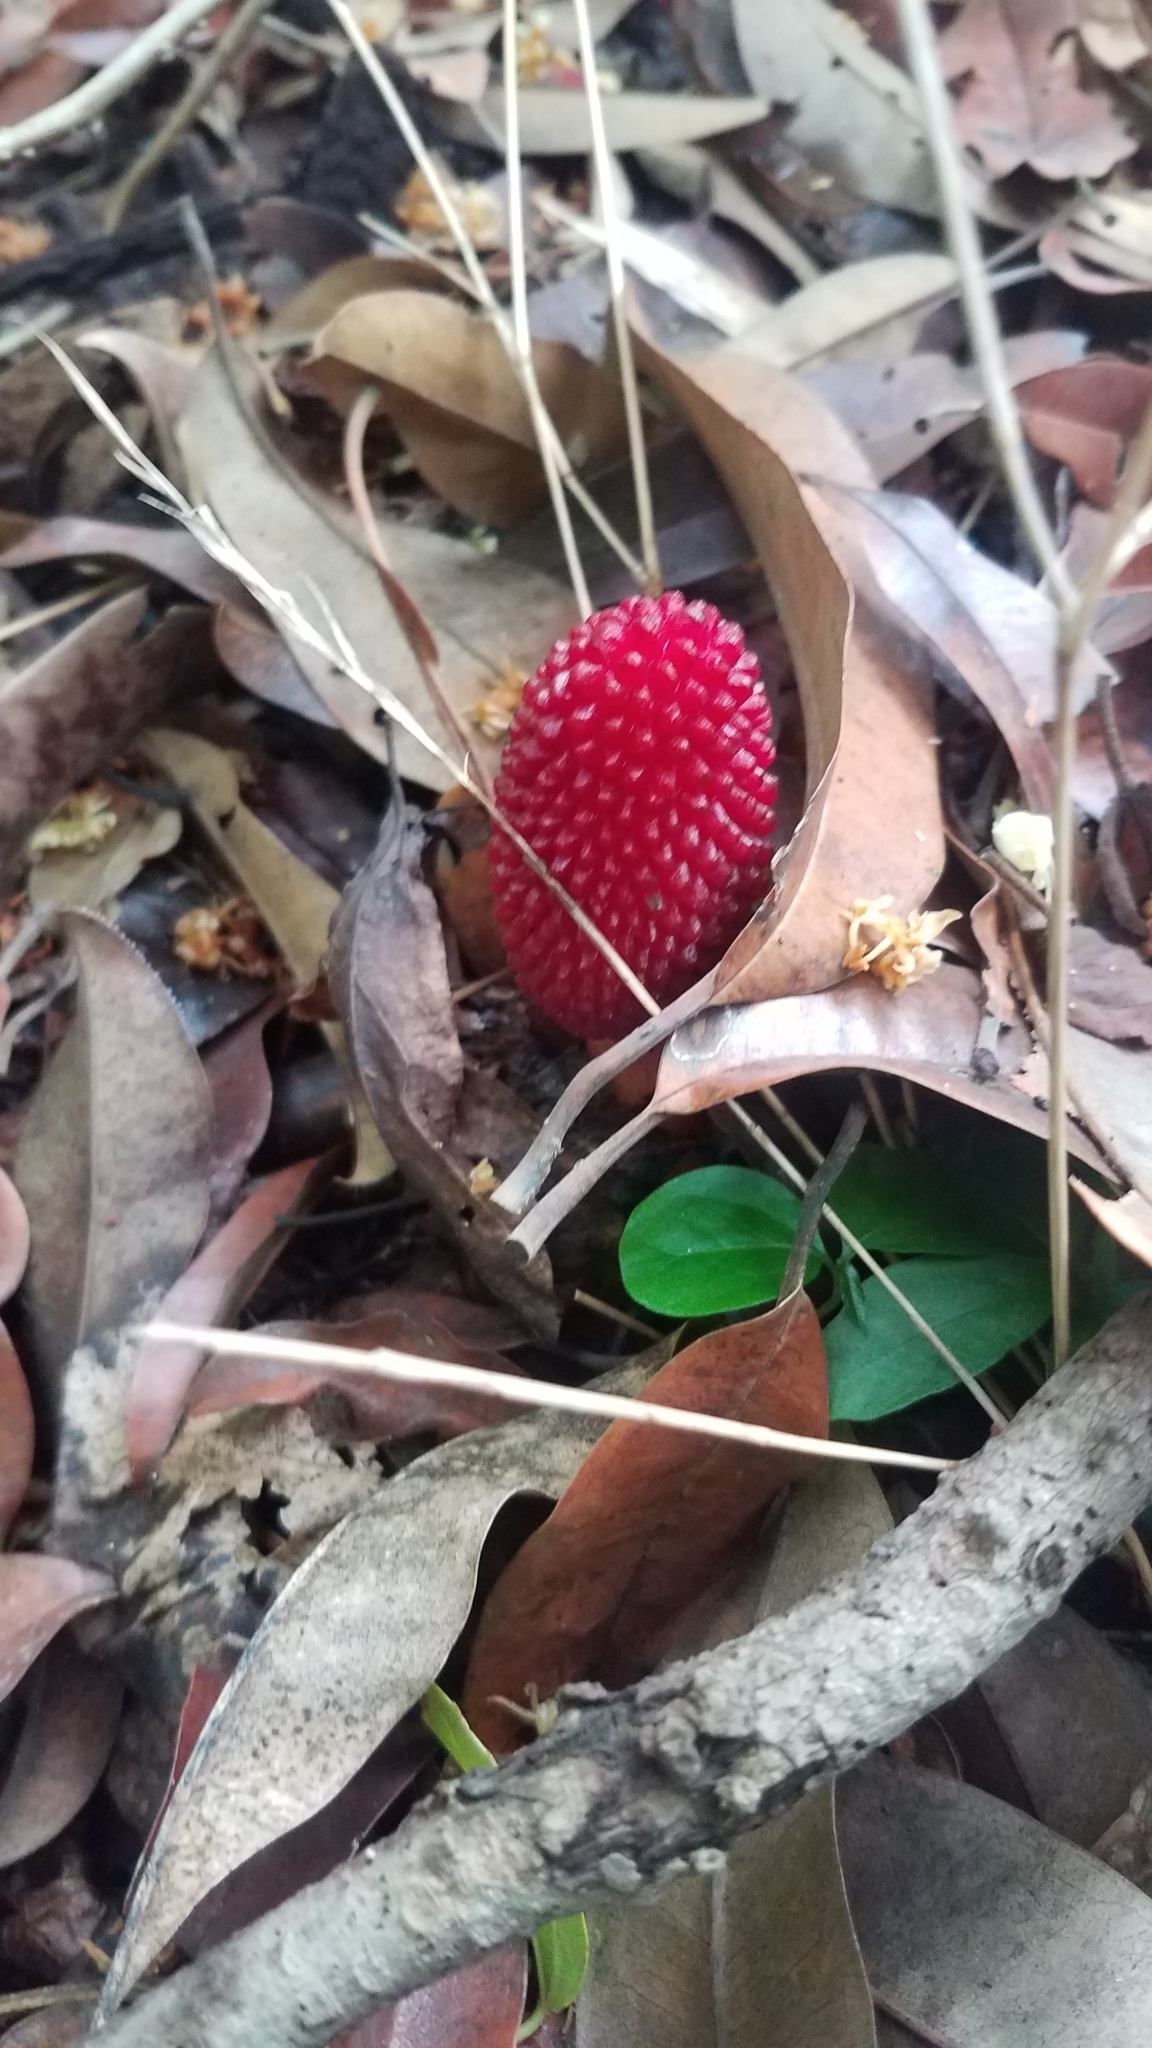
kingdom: Plantae
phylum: Tracheophyta
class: Magnoliopsida
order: Santalales
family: Balanophoraceae
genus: Helosis
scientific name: Helosis cayennensis
